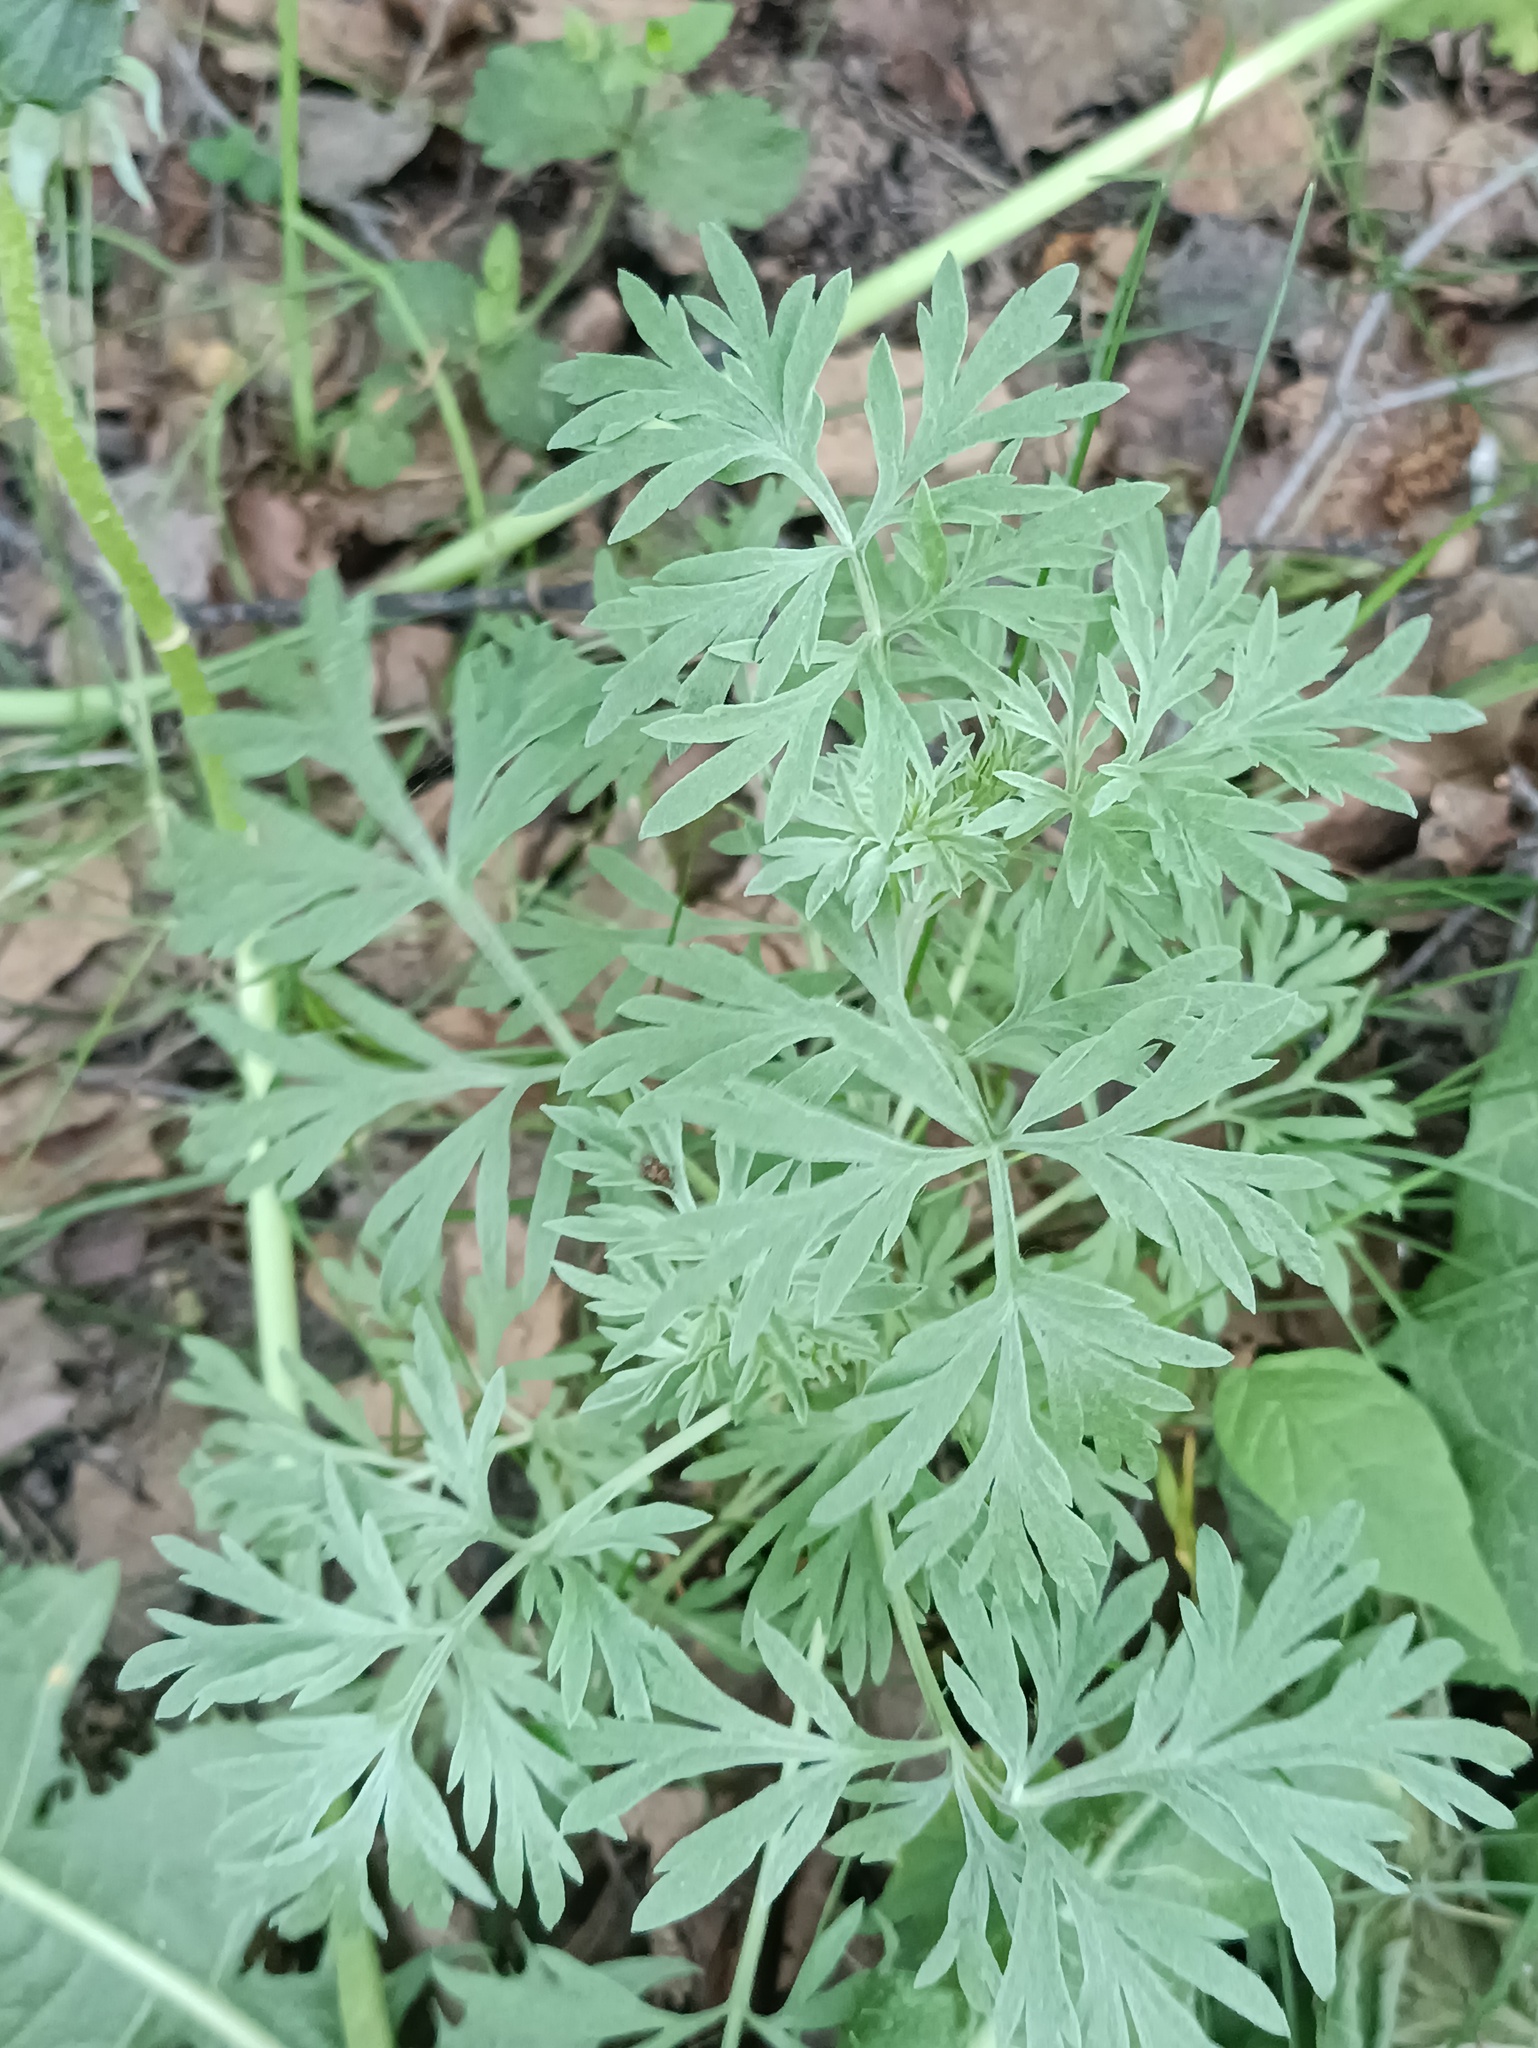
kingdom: Plantae
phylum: Tracheophyta
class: Magnoliopsida
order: Asterales
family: Asteraceae
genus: Artemisia
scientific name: Artemisia absinthium
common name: Wormwood
